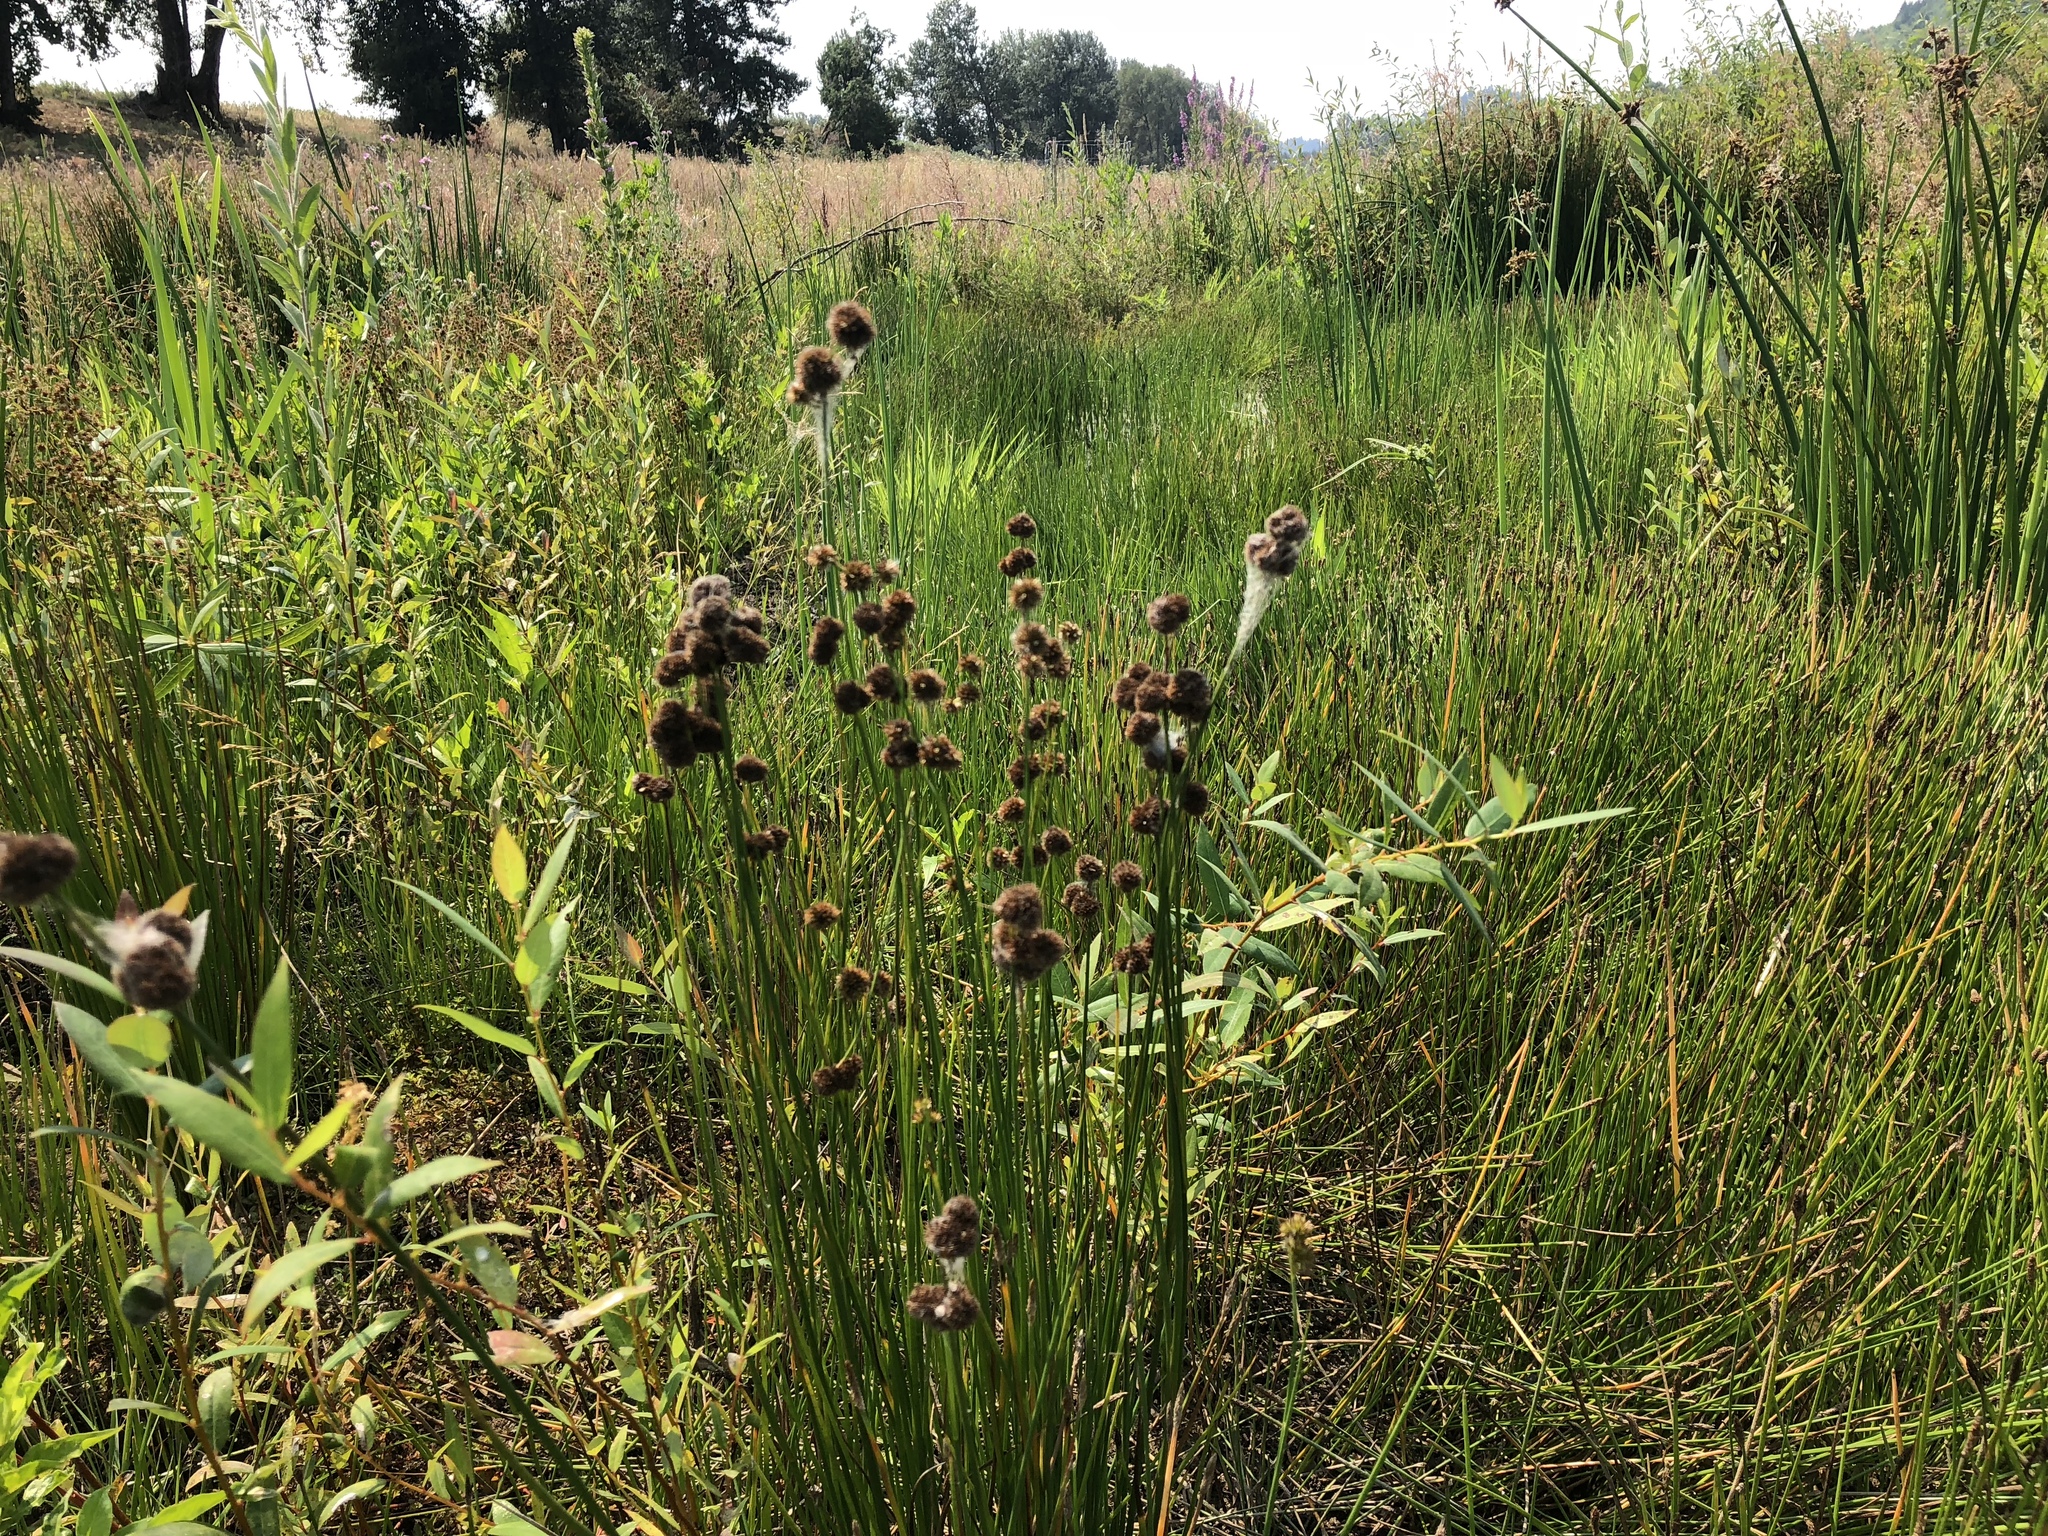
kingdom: Plantae
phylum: Tracheophyta
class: Liliopsida
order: Poales
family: Juncaceae
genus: Juncus
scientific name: Juncus bolanderi
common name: Bolander's rush
